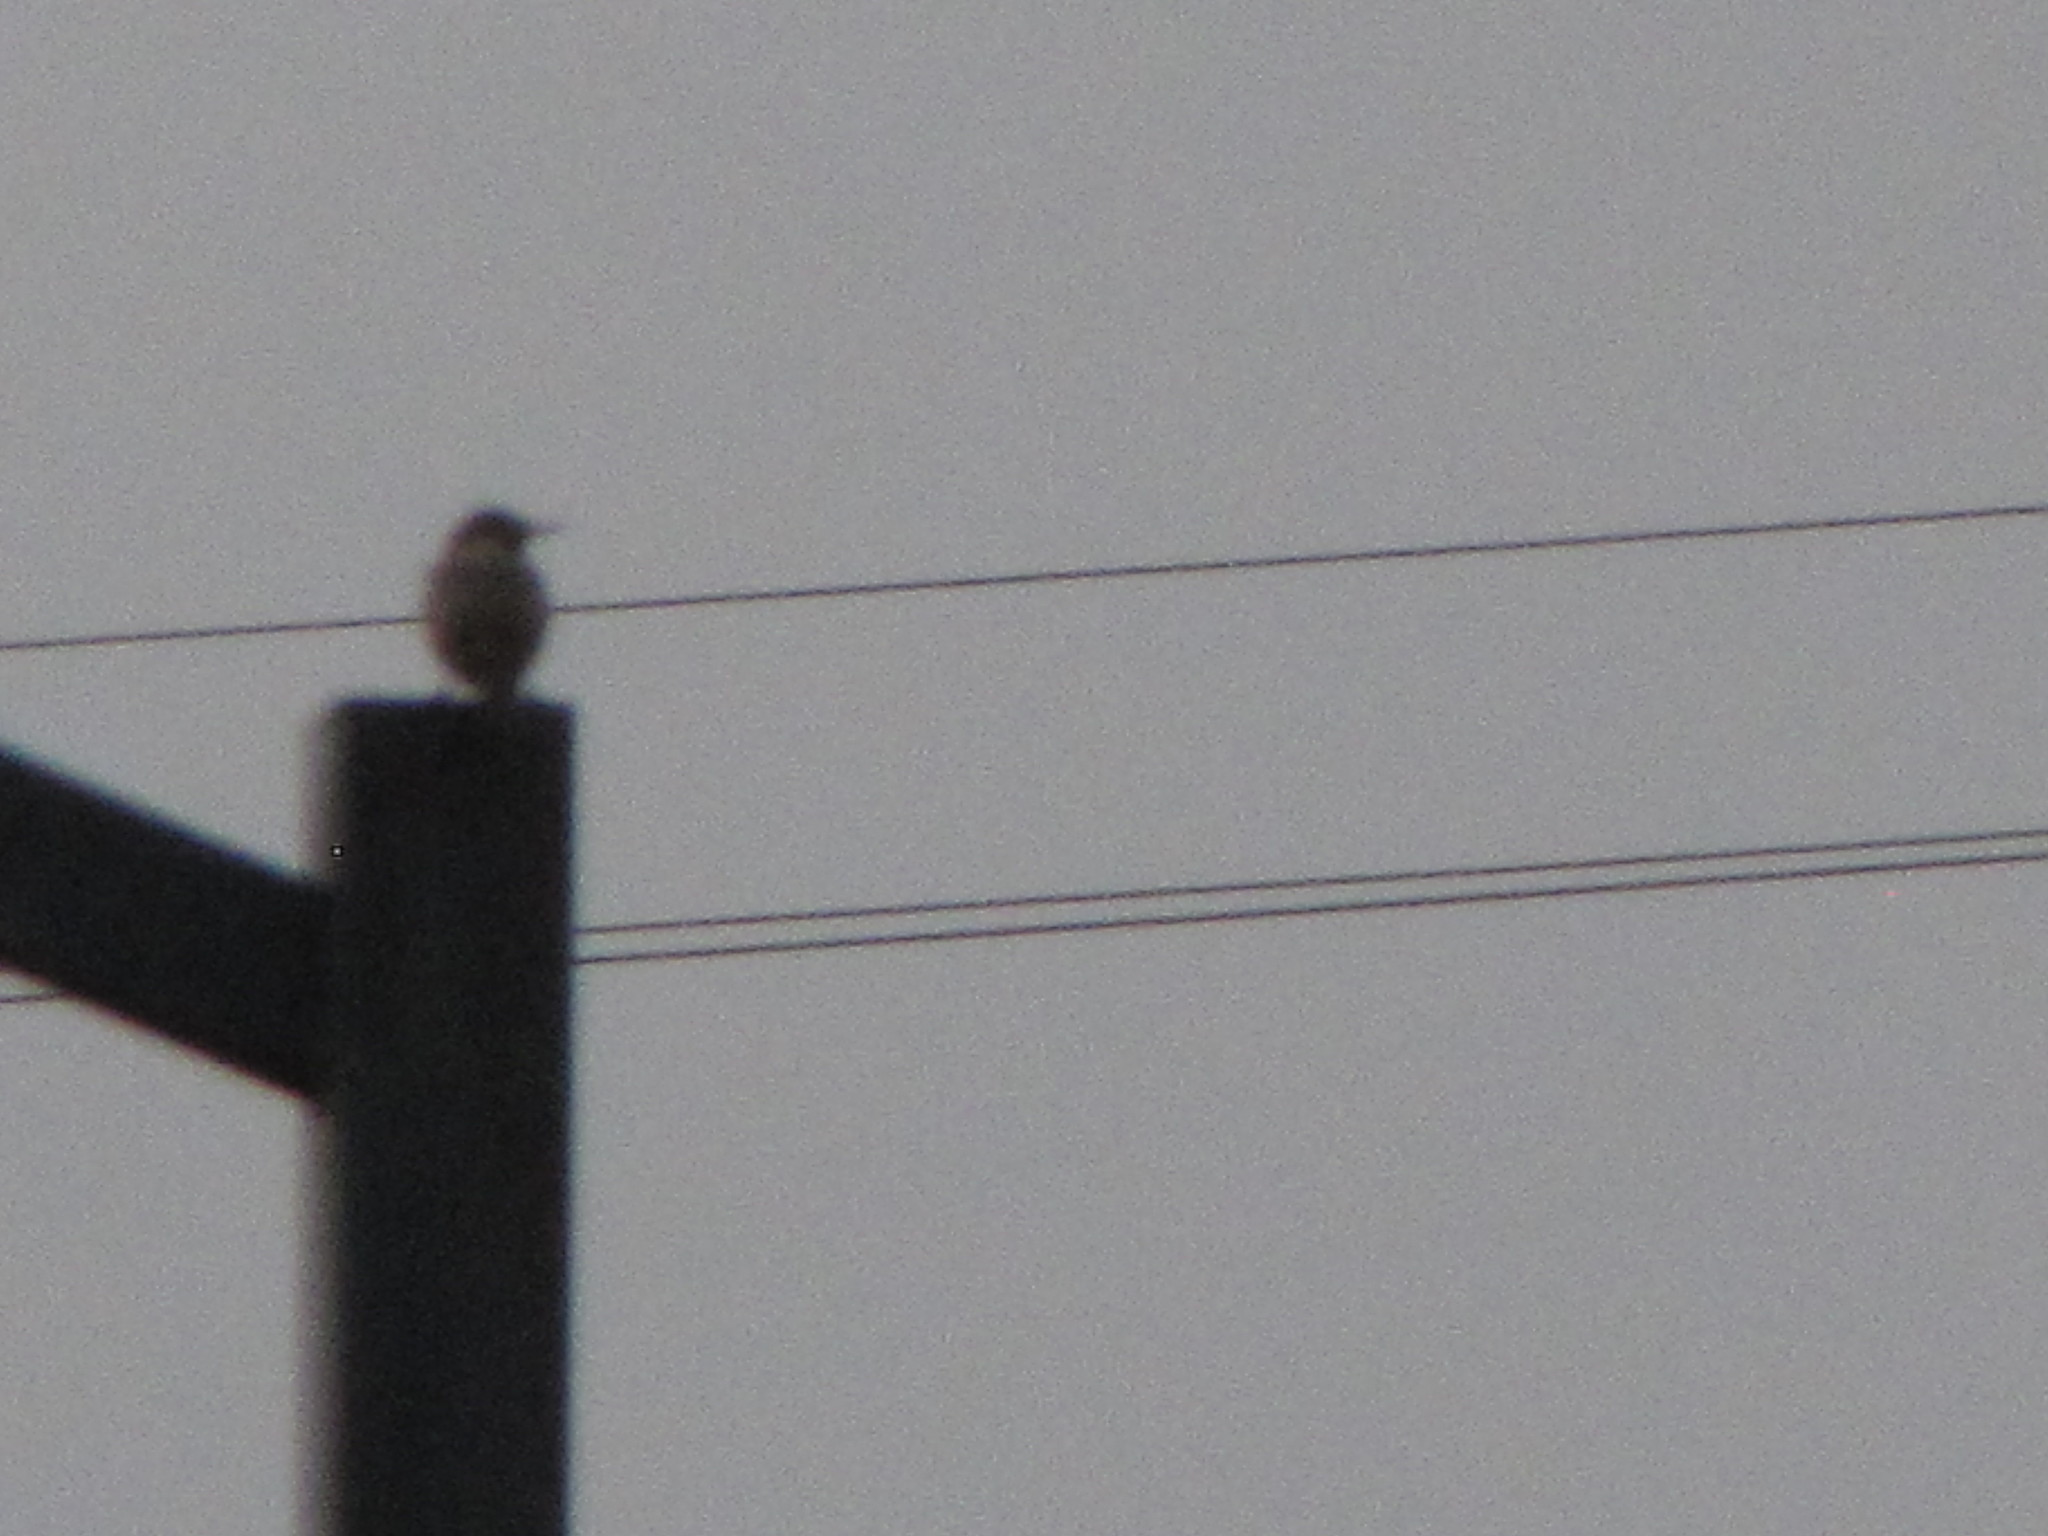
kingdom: Animalia
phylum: Chordata
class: Aves
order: Passeriformes
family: Sturnidae
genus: Sturnus
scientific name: Sturnus vulgaris
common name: Common starling
